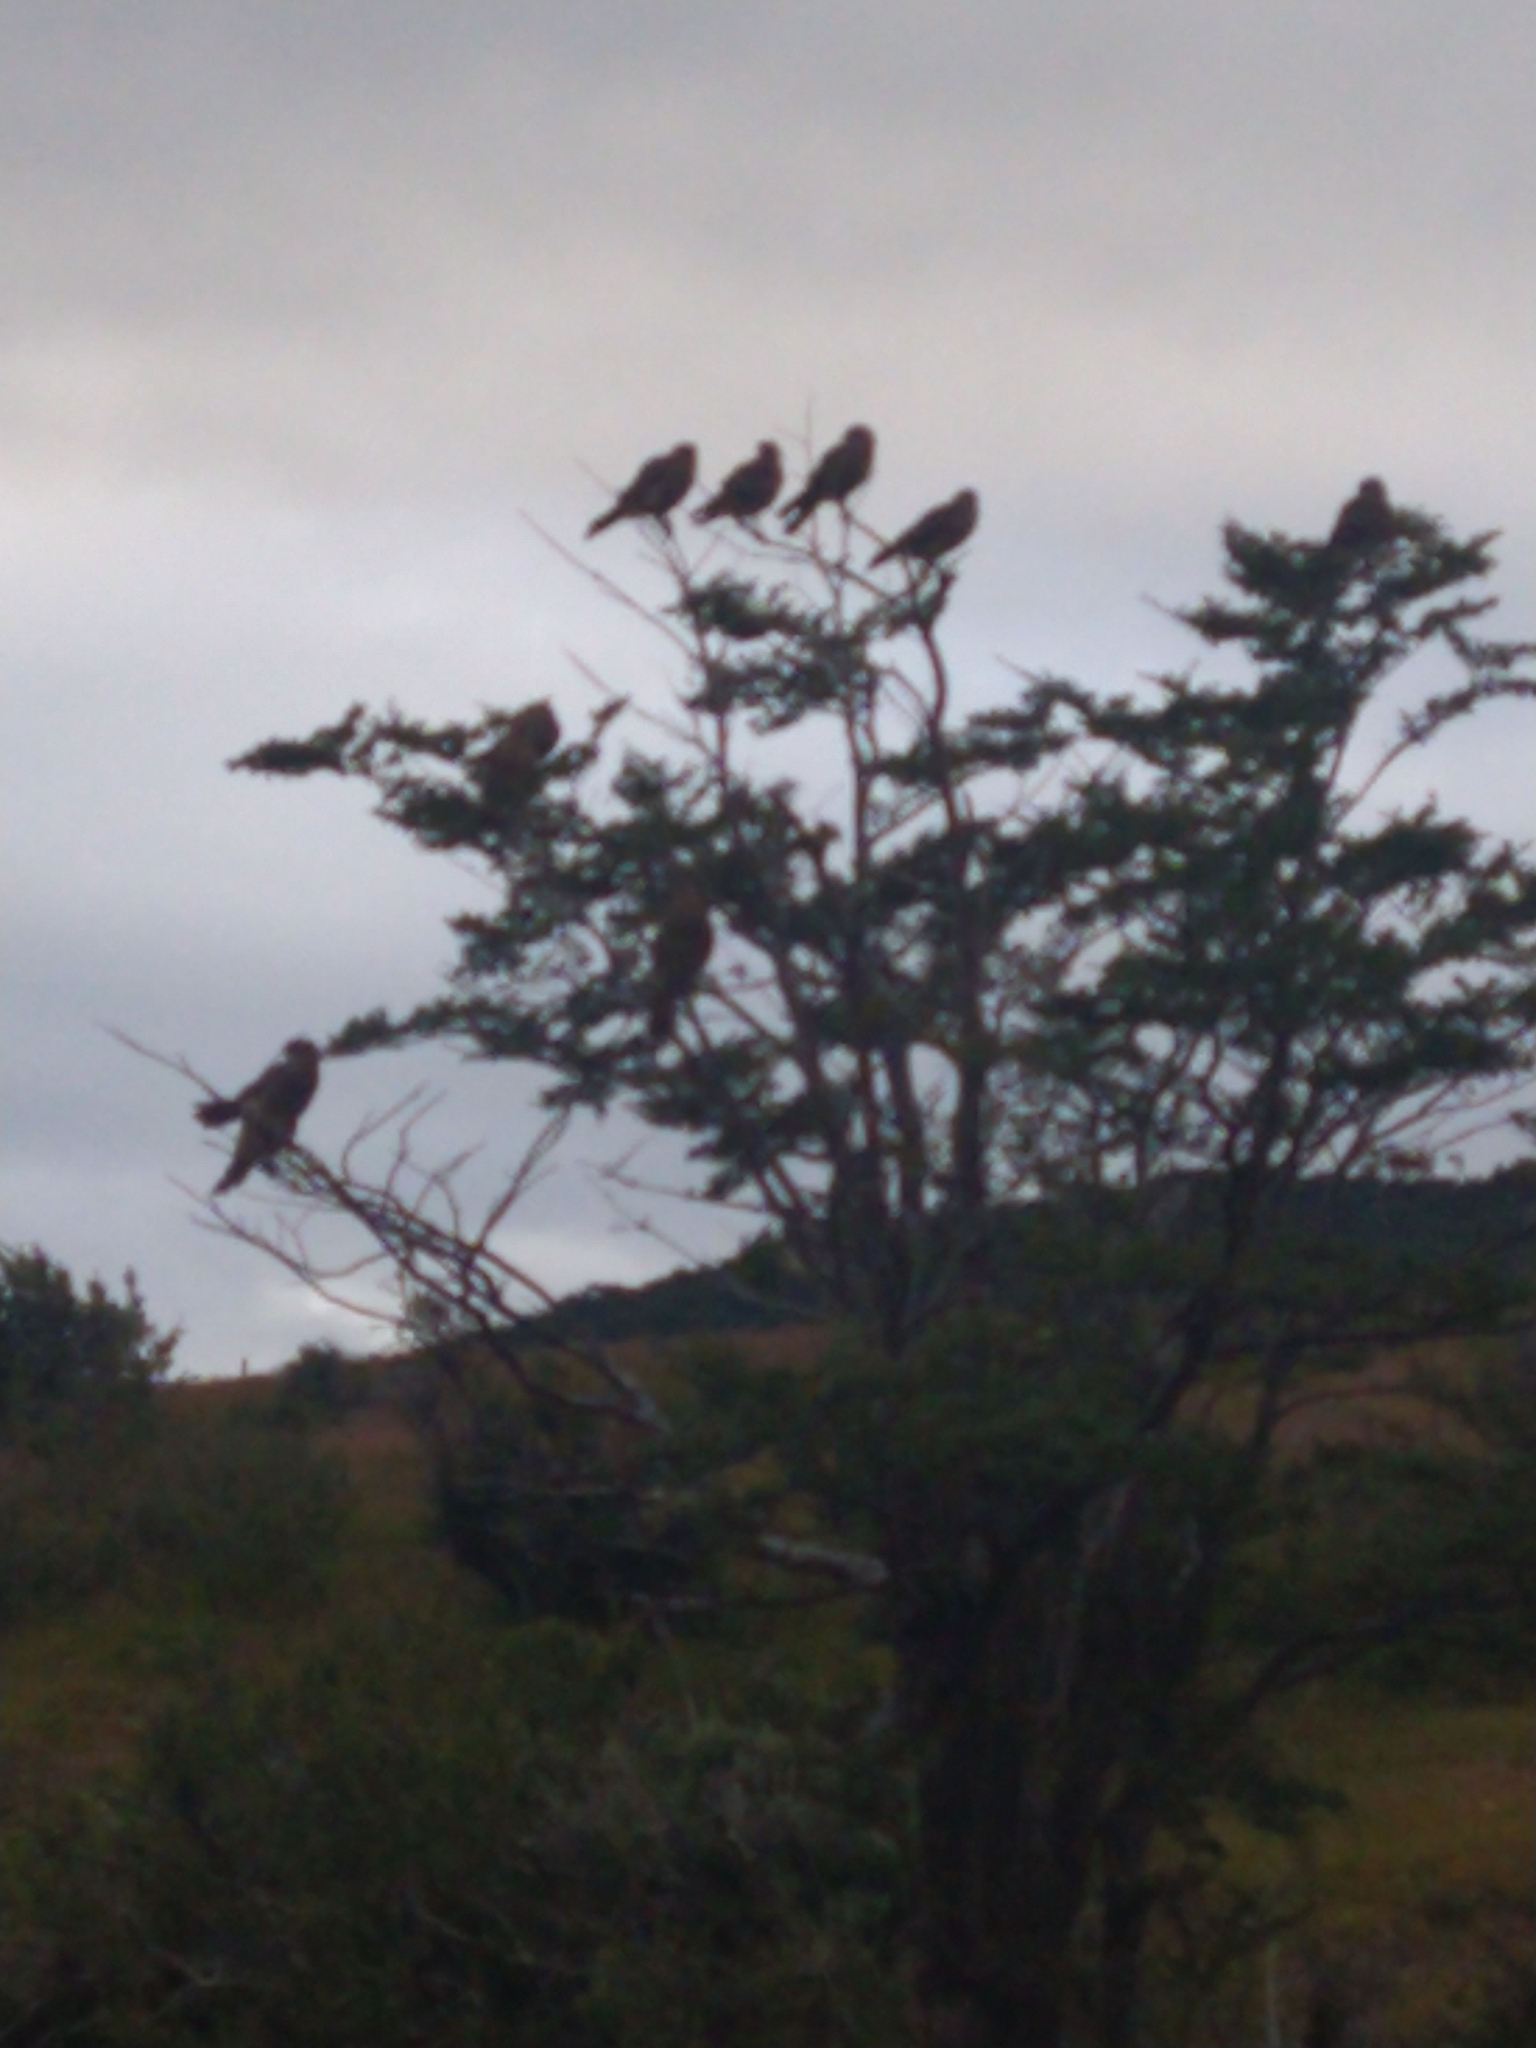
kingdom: Animalia
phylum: Chordata
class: Aves
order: Falconiformes
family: Falconidae
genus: Daptrius
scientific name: Daptrius
